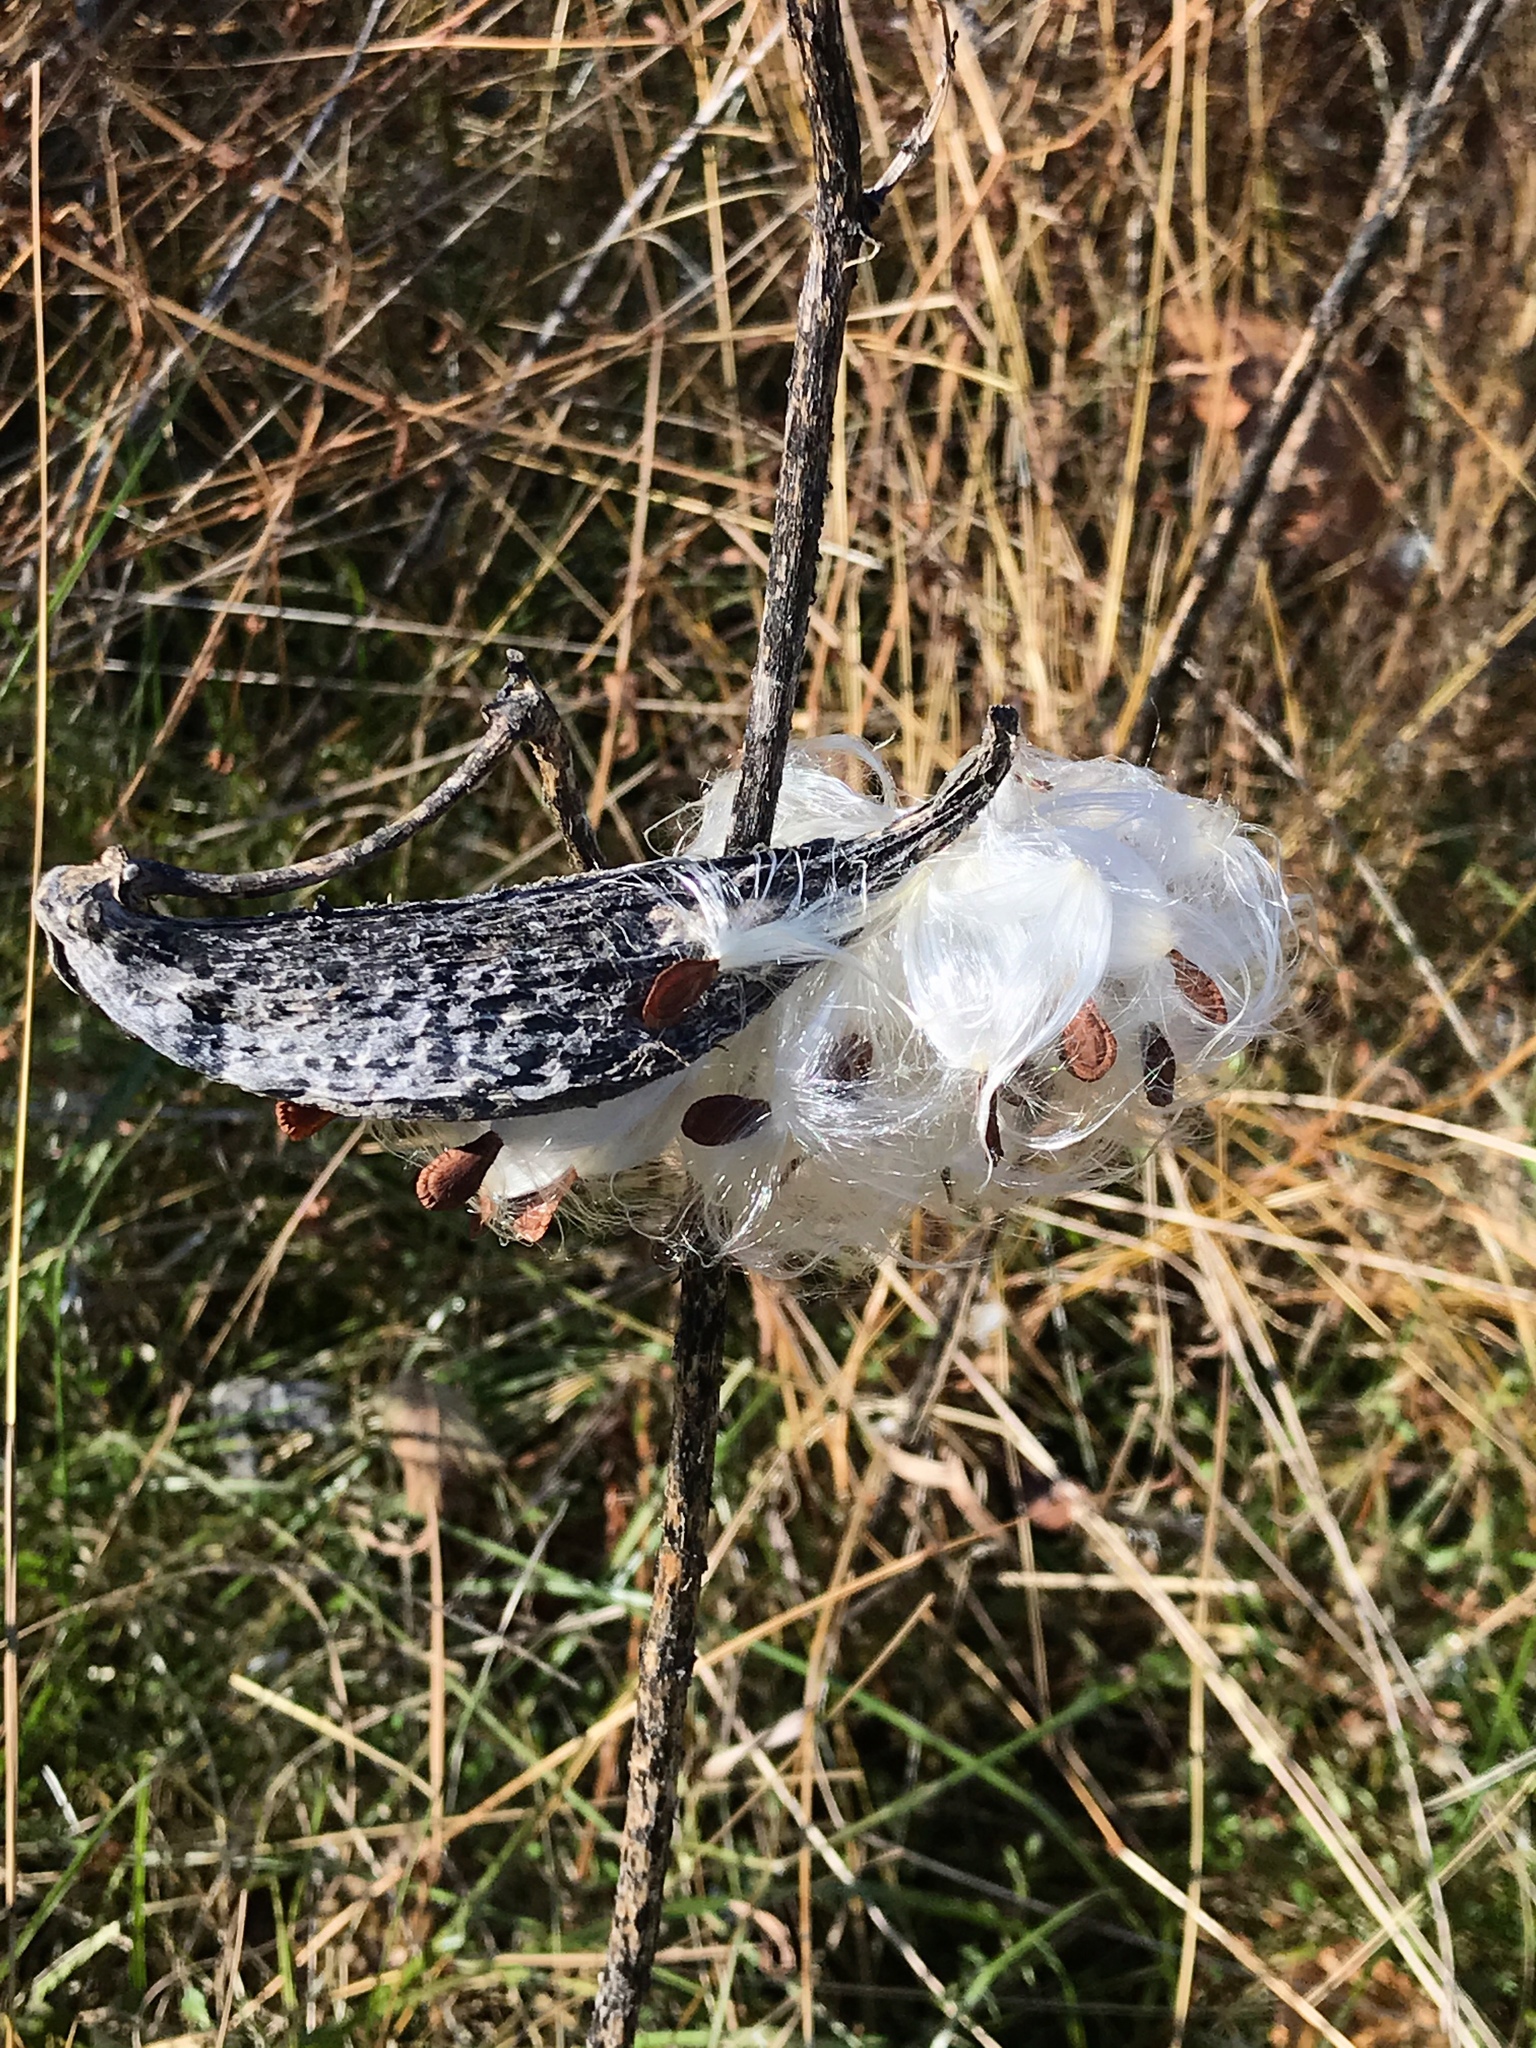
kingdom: Plantae
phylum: Tracheophyta
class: Magnoliopsida
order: Gentianales
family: Apocynaceae
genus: Asclepias
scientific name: Asclepias syriaca
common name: Common milkweed
